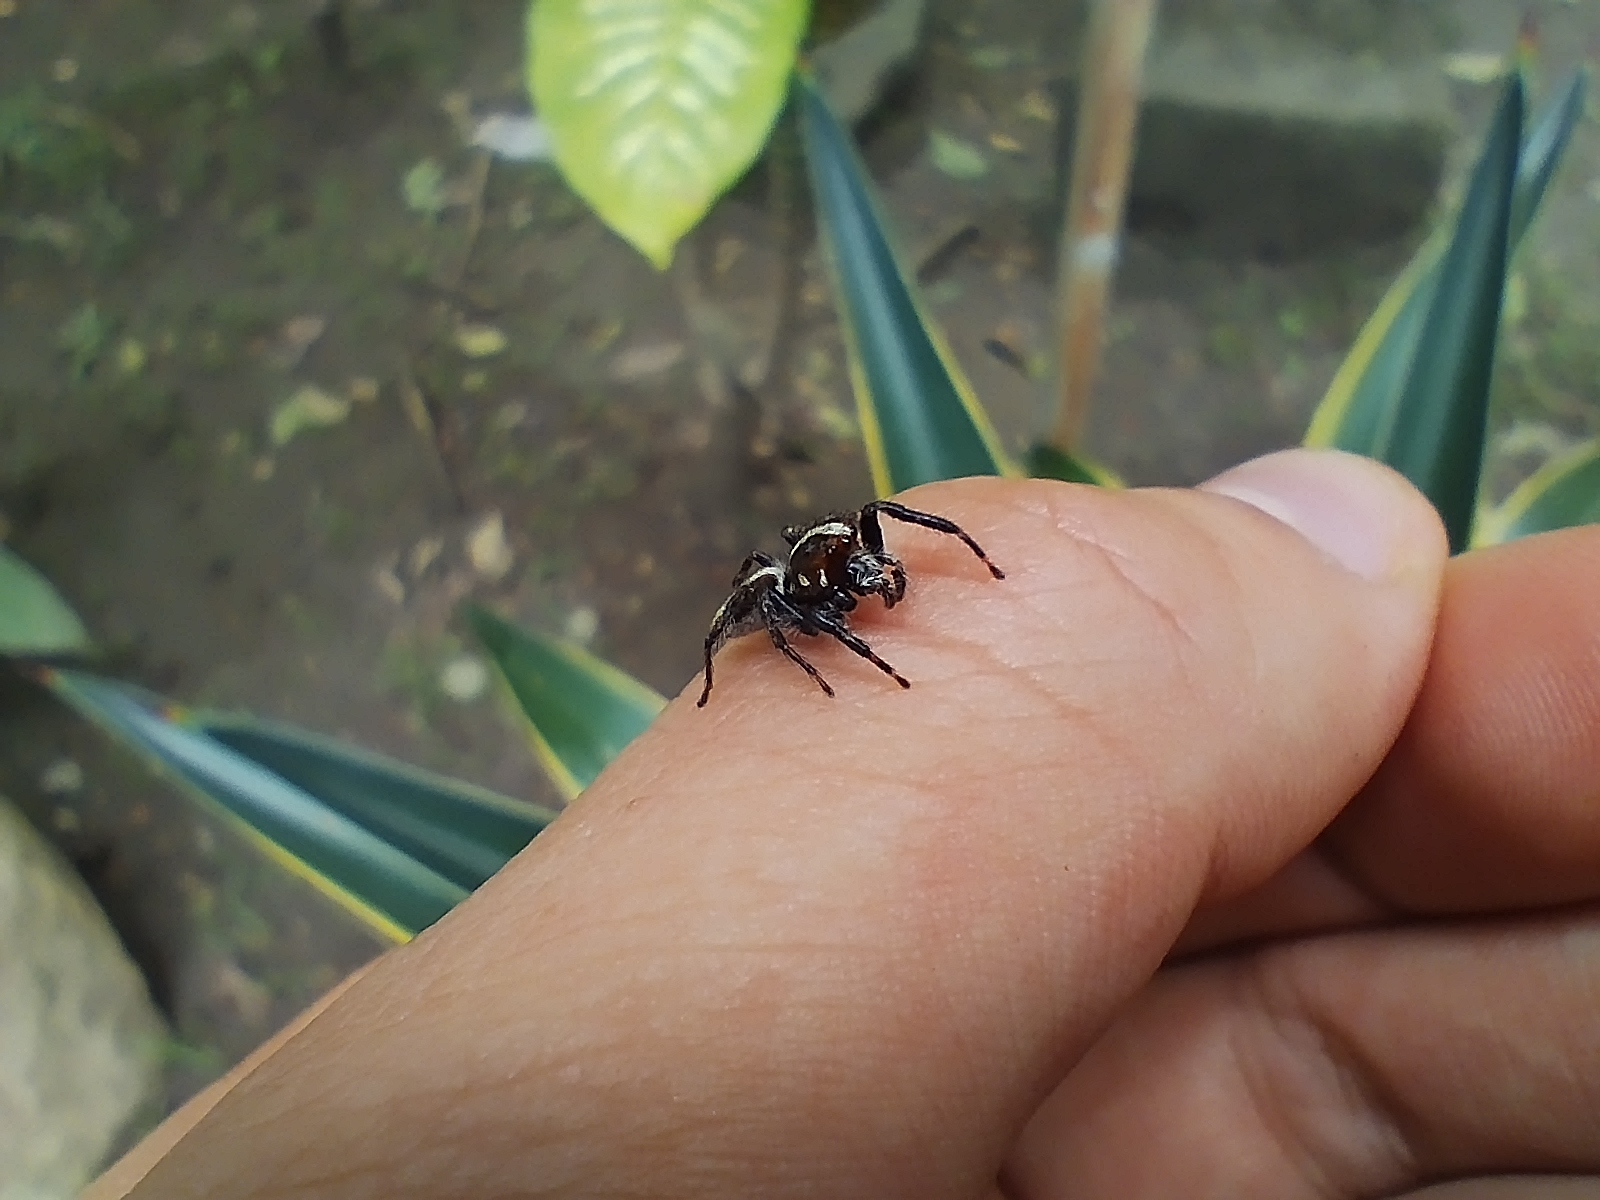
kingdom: Animalia
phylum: Arthropoda
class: Arachnida
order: Araneae
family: Salticidae
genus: Frigga
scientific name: Frigga crocuta
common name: Jumping spiders
